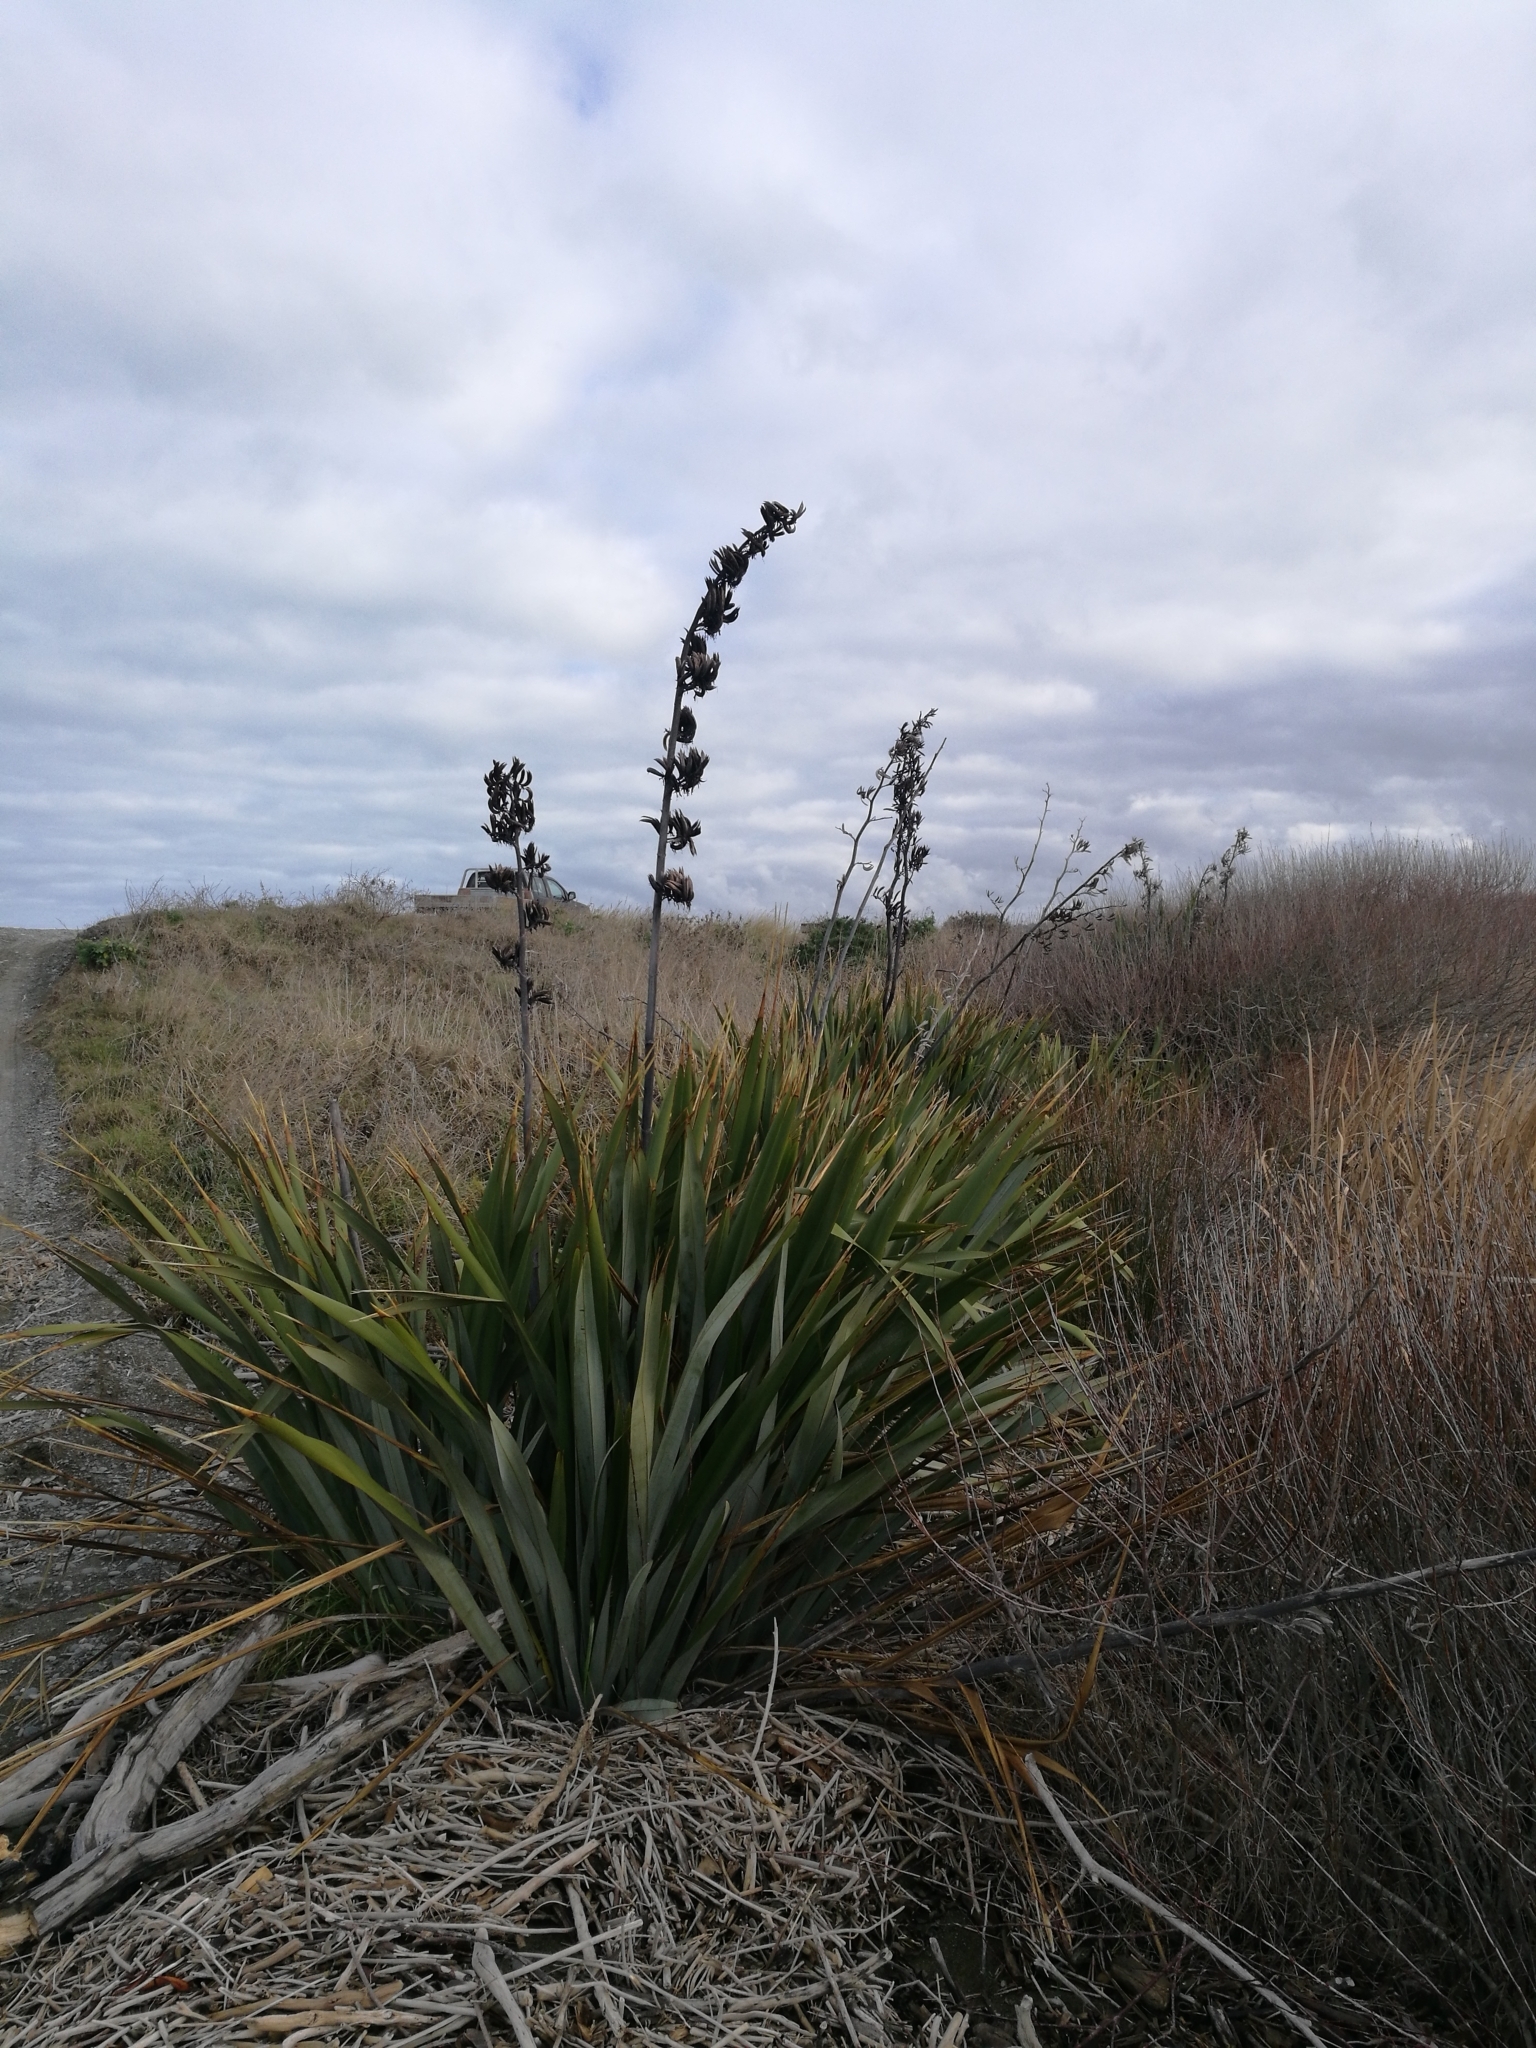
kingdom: Plantae
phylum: Tracheophyta
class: Liliopsida
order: Asparagales
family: Asphodelaceae
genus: Phormium
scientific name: Phormium tenax
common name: New zealand flax
